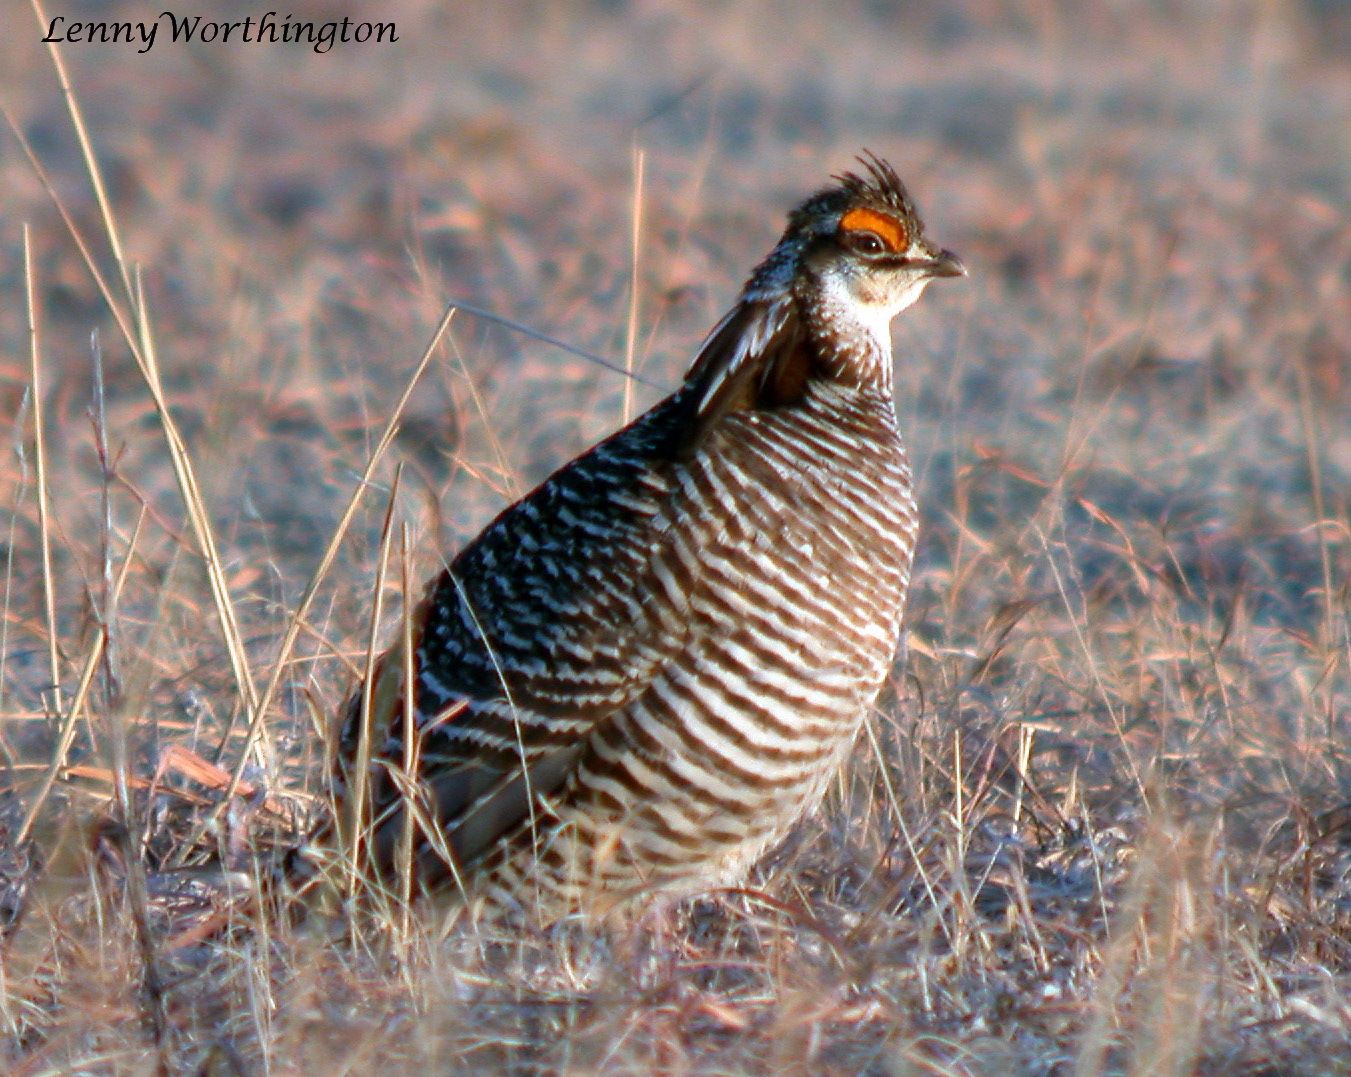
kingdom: Animalia
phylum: Chordata
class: Aves
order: Galliformes
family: Phasianidae
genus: Tympanuchus
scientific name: Tympanuchus cupido
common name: Greater prairie chicken
